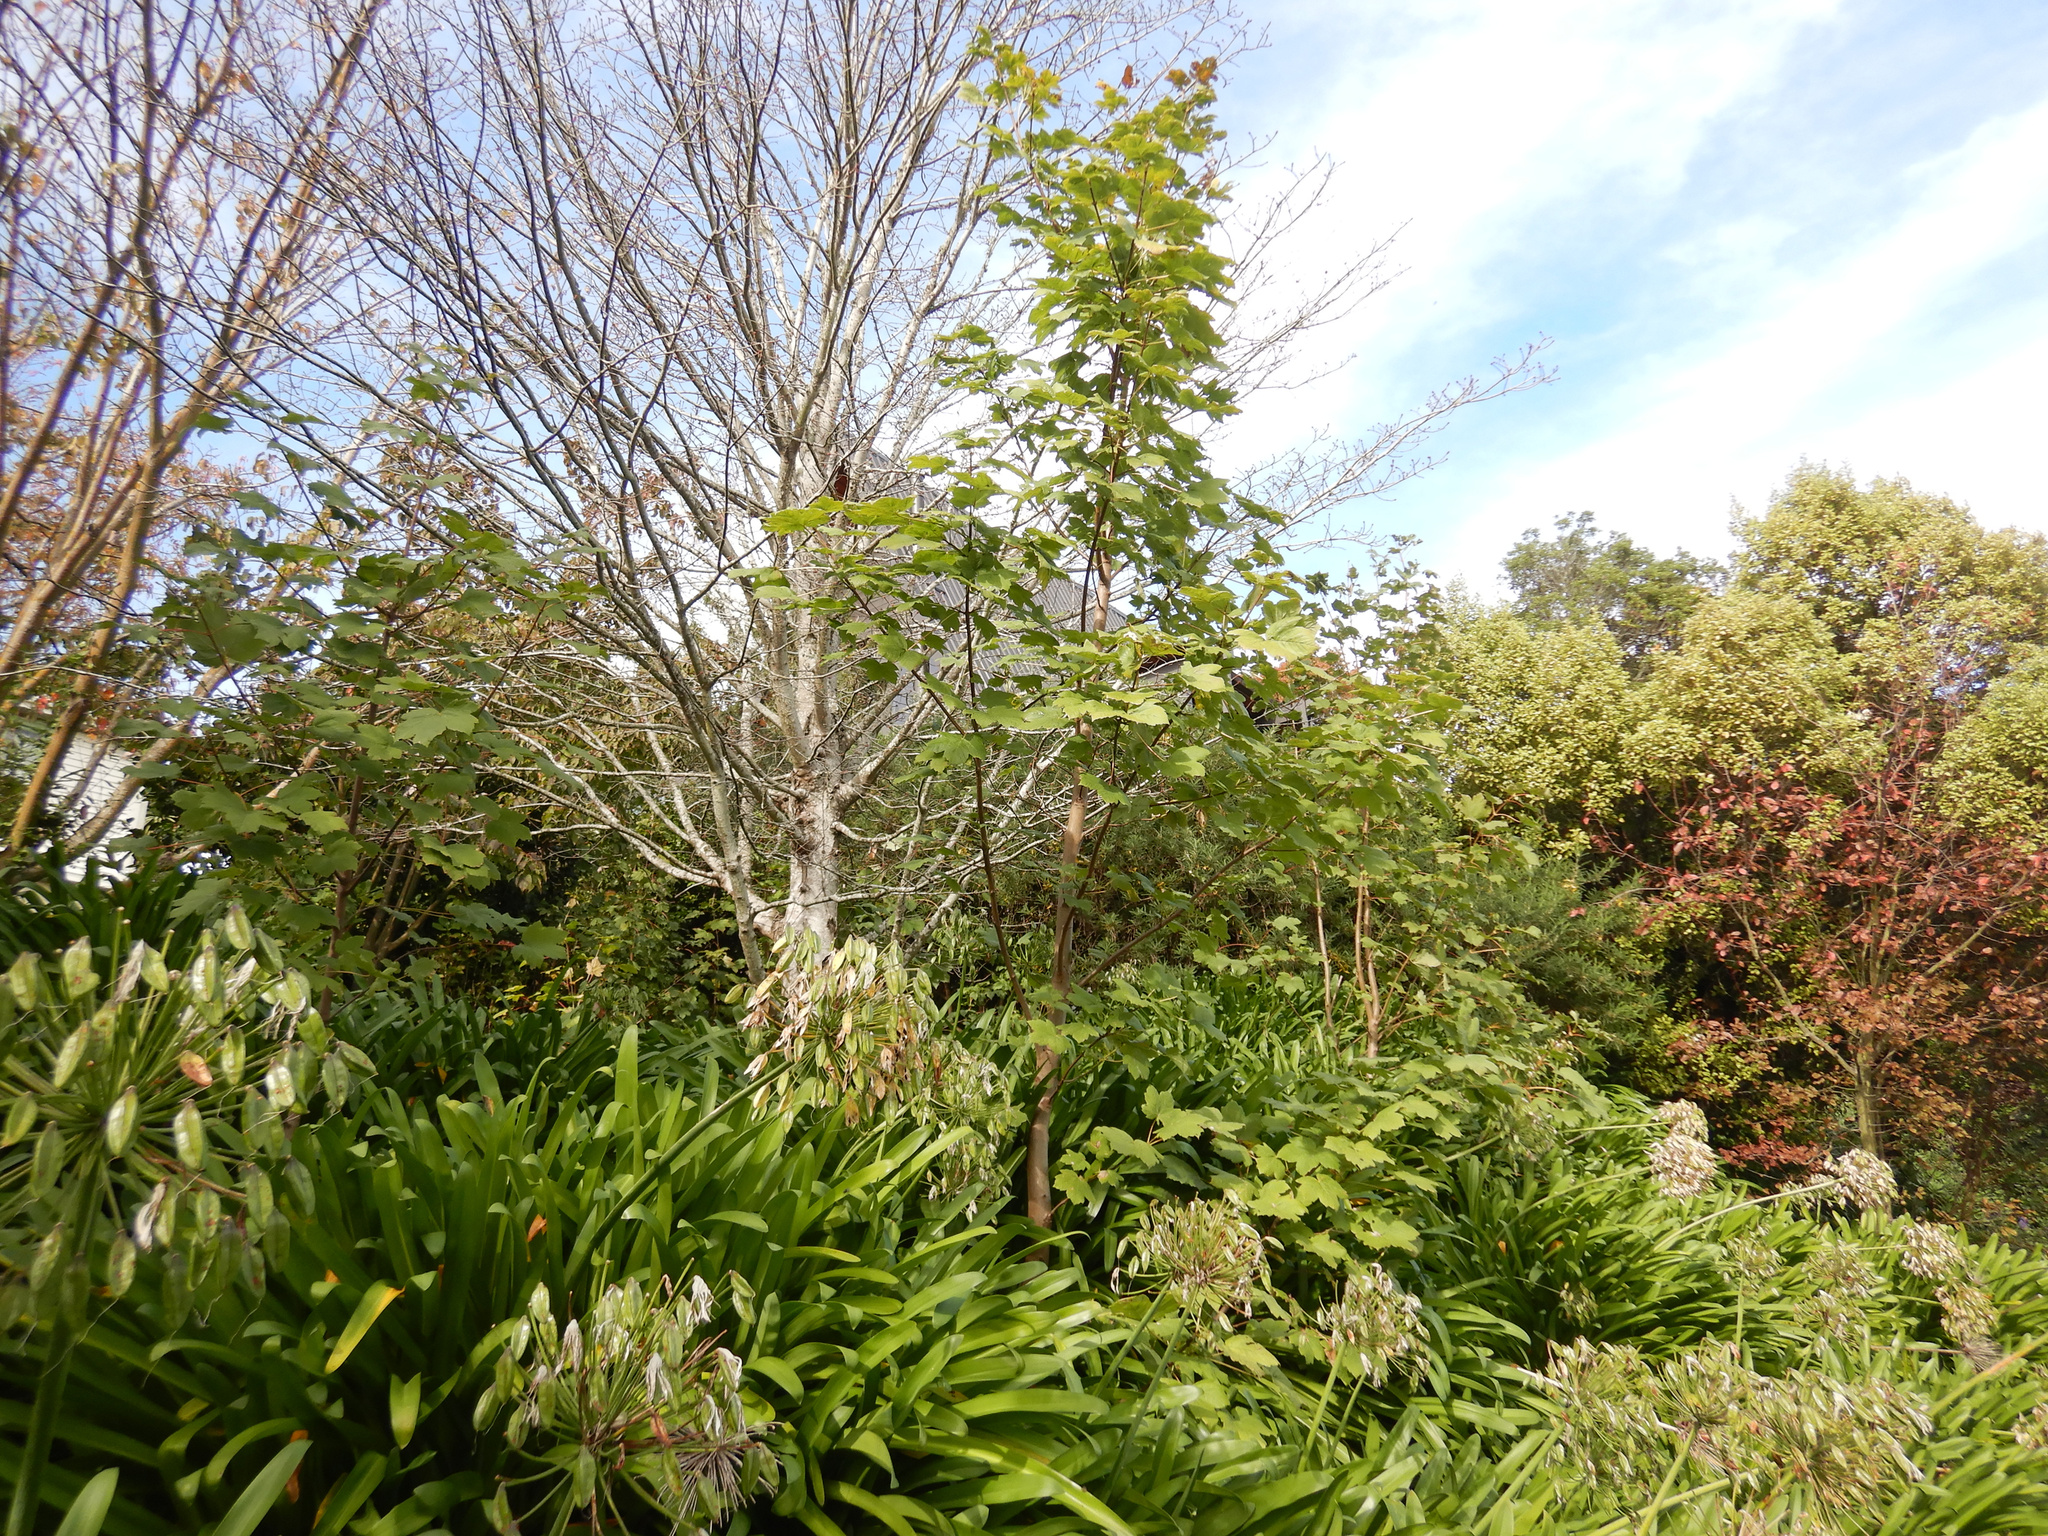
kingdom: Plantae
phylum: Tracheophyta
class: Magnoliopsida
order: Sapindales
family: Sapindaceae
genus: Acer
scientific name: Acer pseudoplatanus
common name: Sycamore
